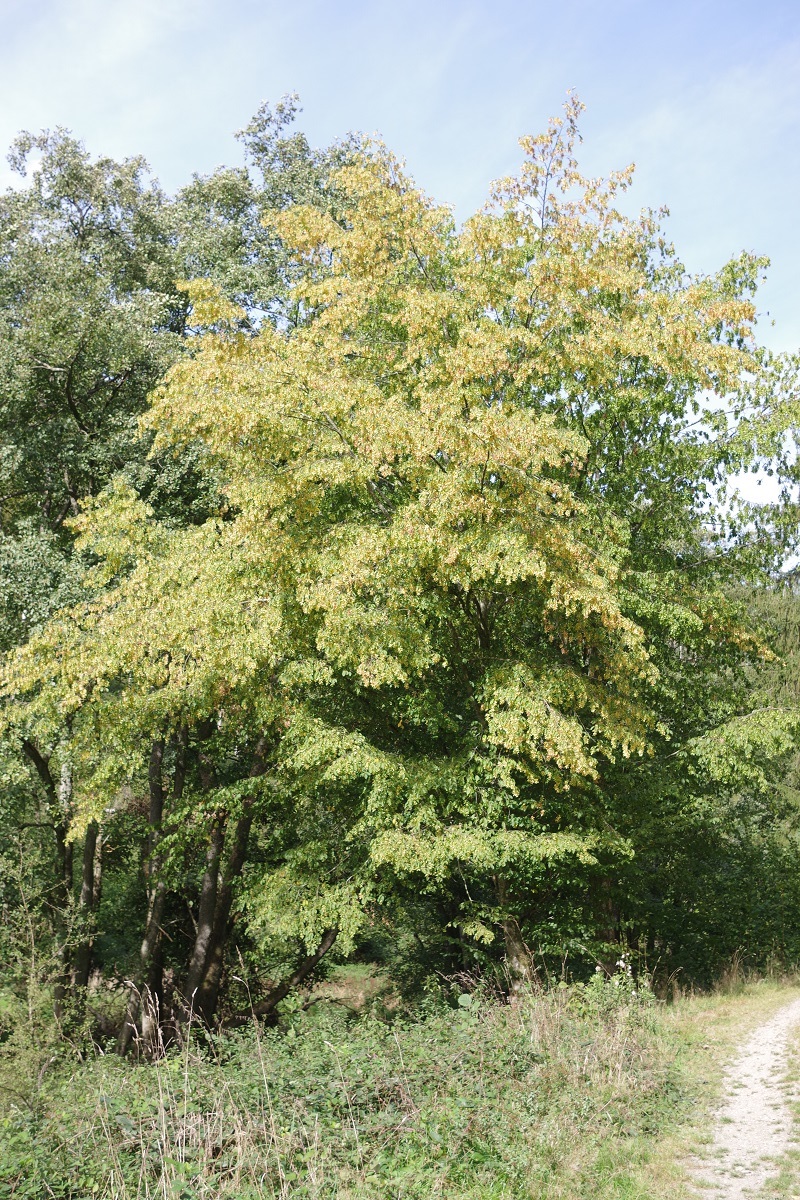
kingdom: Plantae
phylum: Tracheophyta
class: Magnoliopsida
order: Fagales
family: Betulaceae
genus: Carpinus
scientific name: Carpinus betulus
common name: Hornbeam
